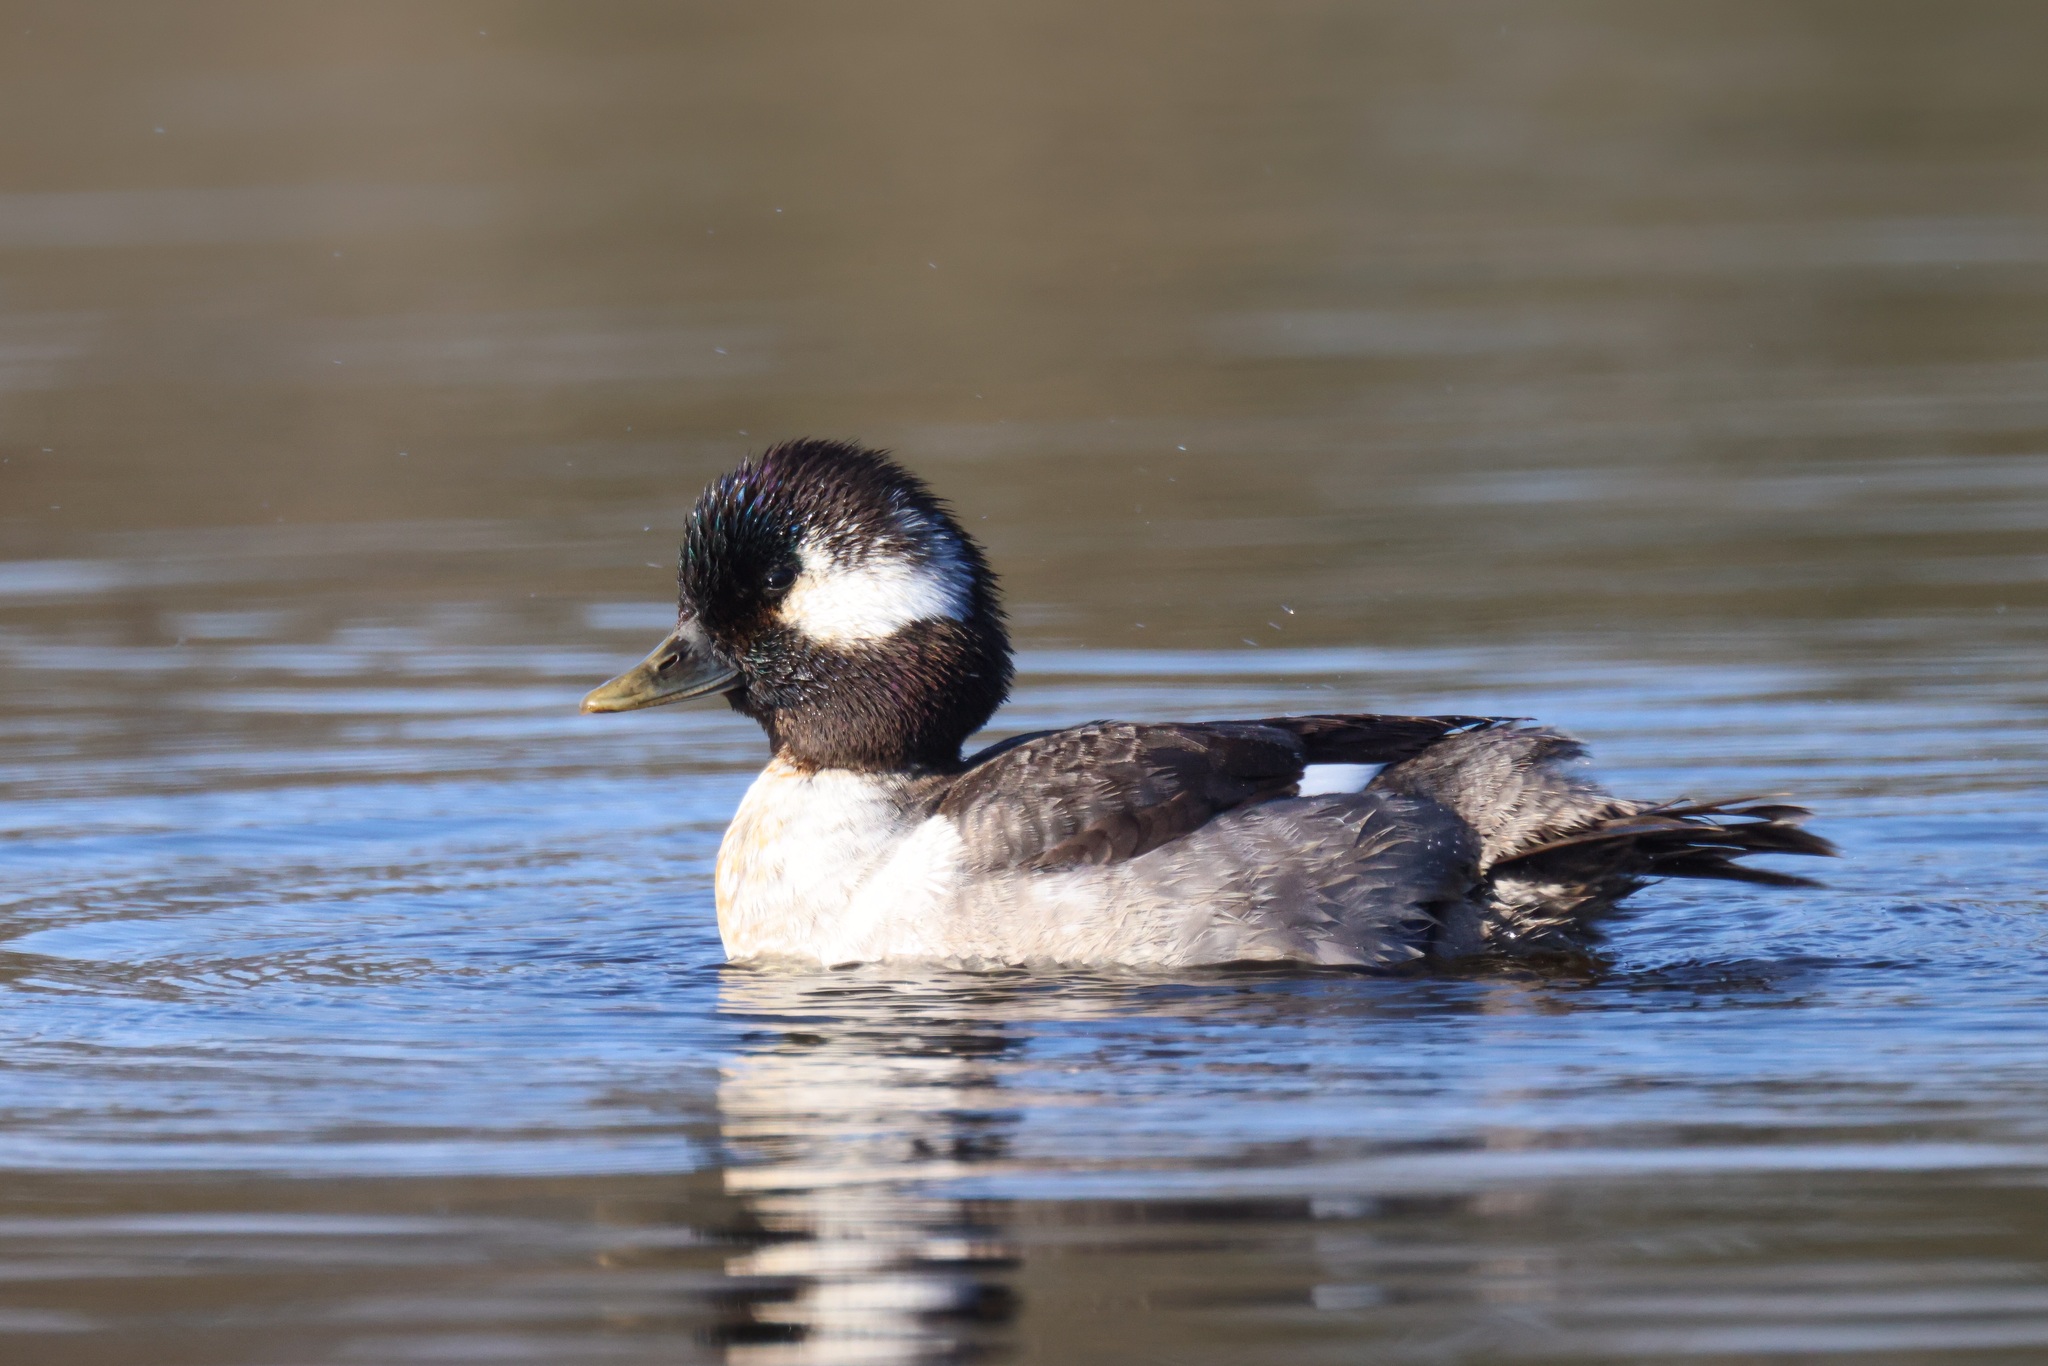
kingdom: Animalia
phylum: Chordata
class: Aves
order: Anseriformes
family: Anatidae
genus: Bucephala
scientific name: Bucephala albeola
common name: Bufflehead
